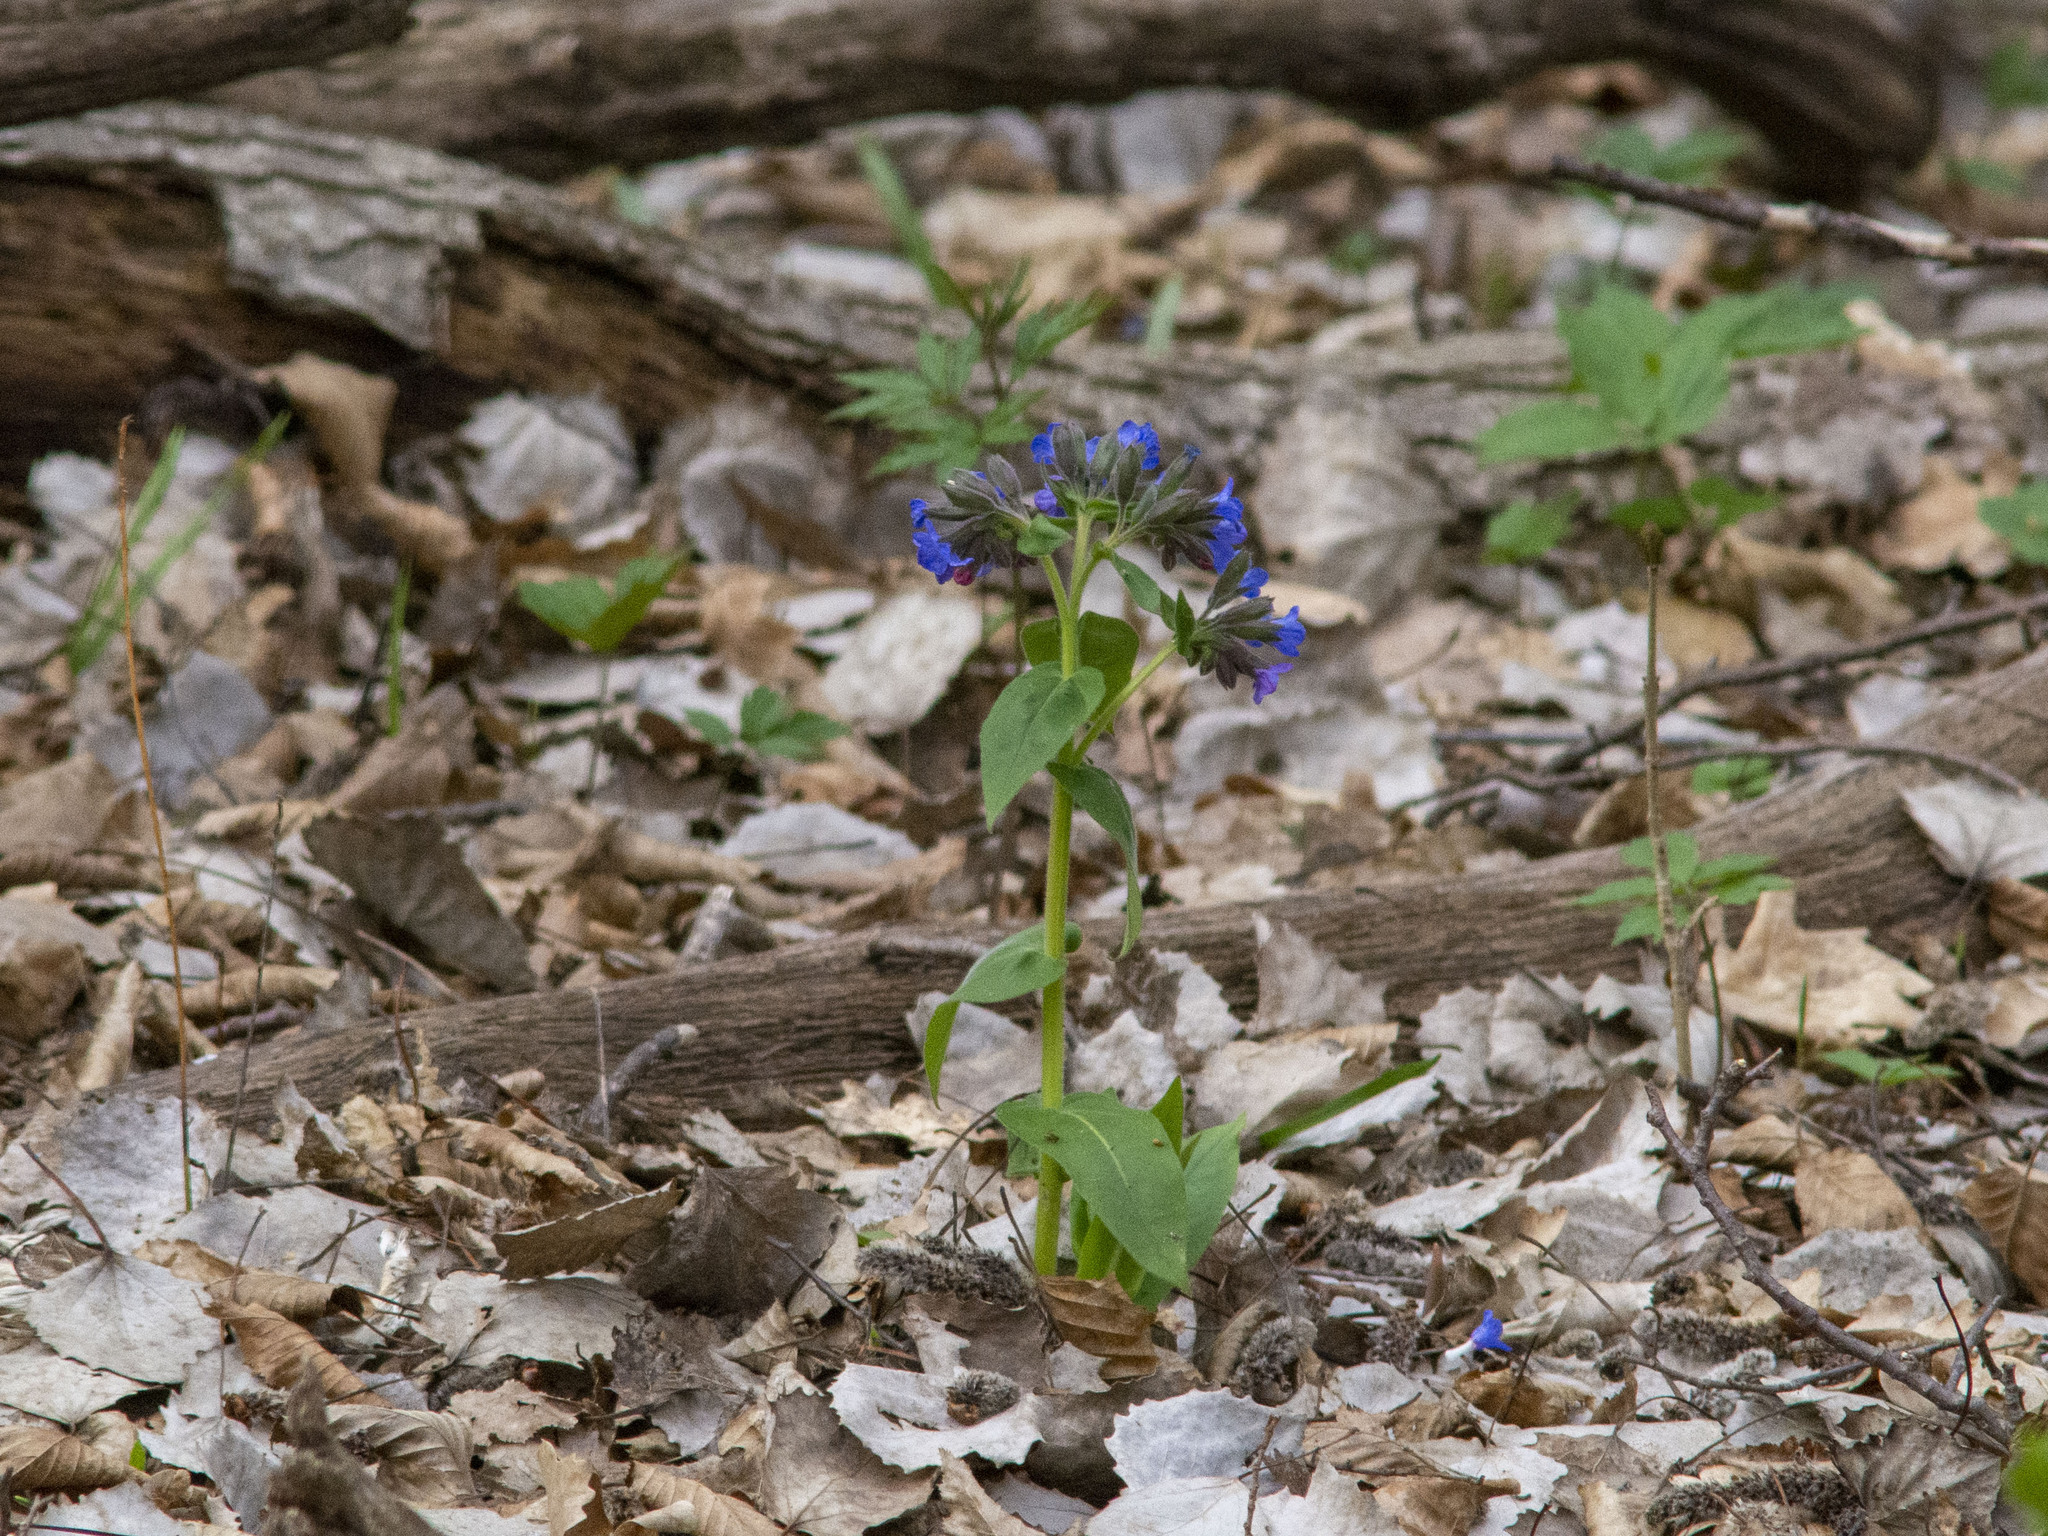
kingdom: Plantae
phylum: Tracheophyta
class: Magnoliopsida
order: Boraginales
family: Boraginaceae
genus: Pulmonaria
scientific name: Pulmonaria mollis
